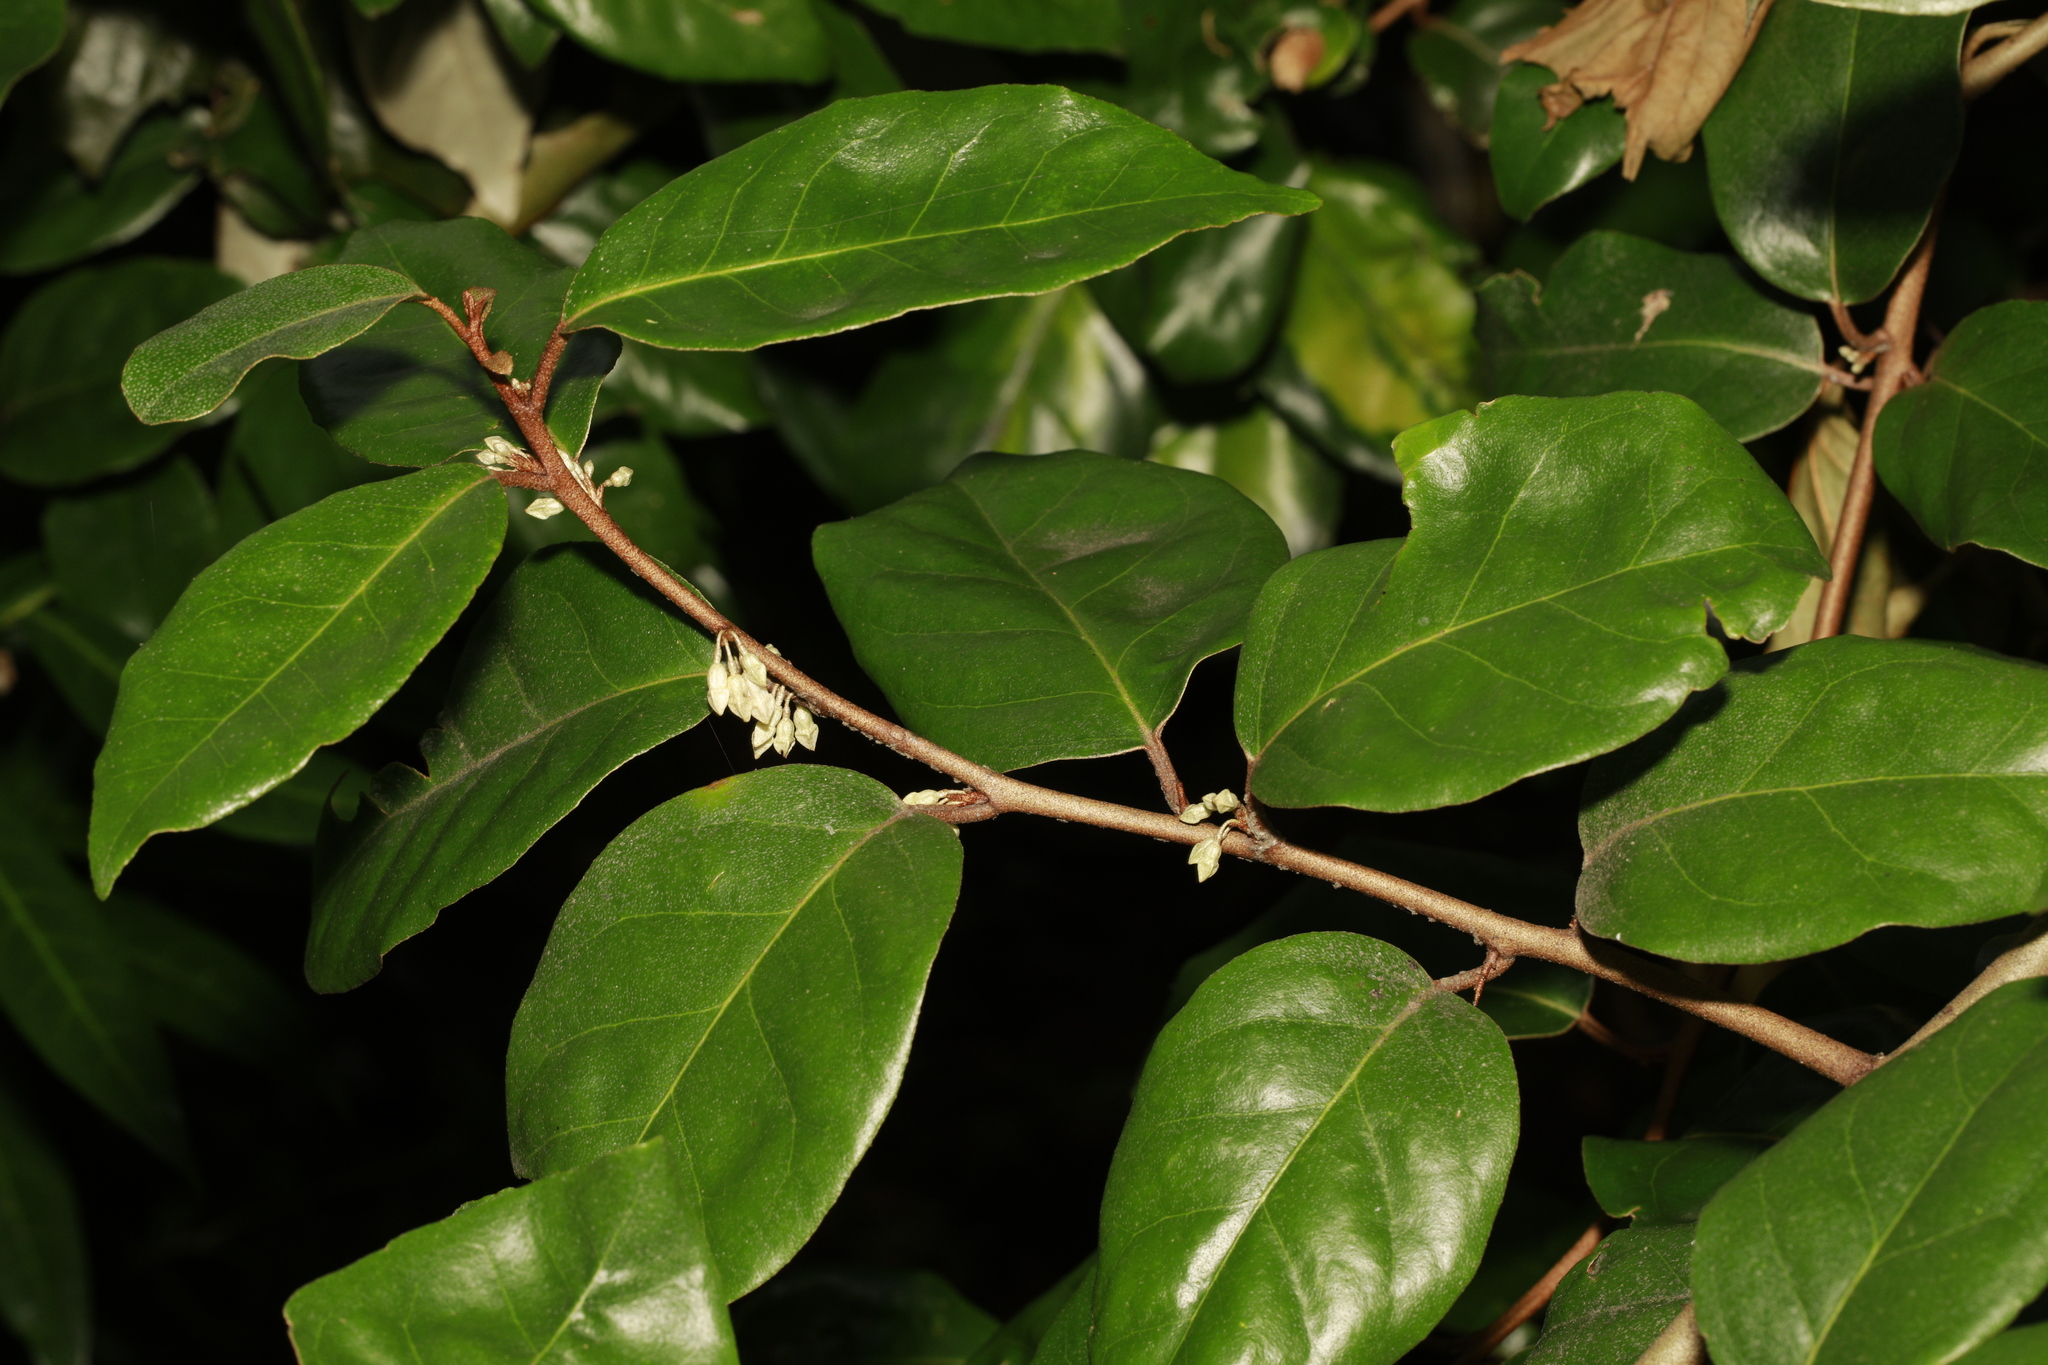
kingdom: Plantae
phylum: Tracheophyta
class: Magnoliopsida
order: Rosales
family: Elaeagnaceae
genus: Elaeagnus
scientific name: Elaeagnus pungens
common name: Spiny oleaster
